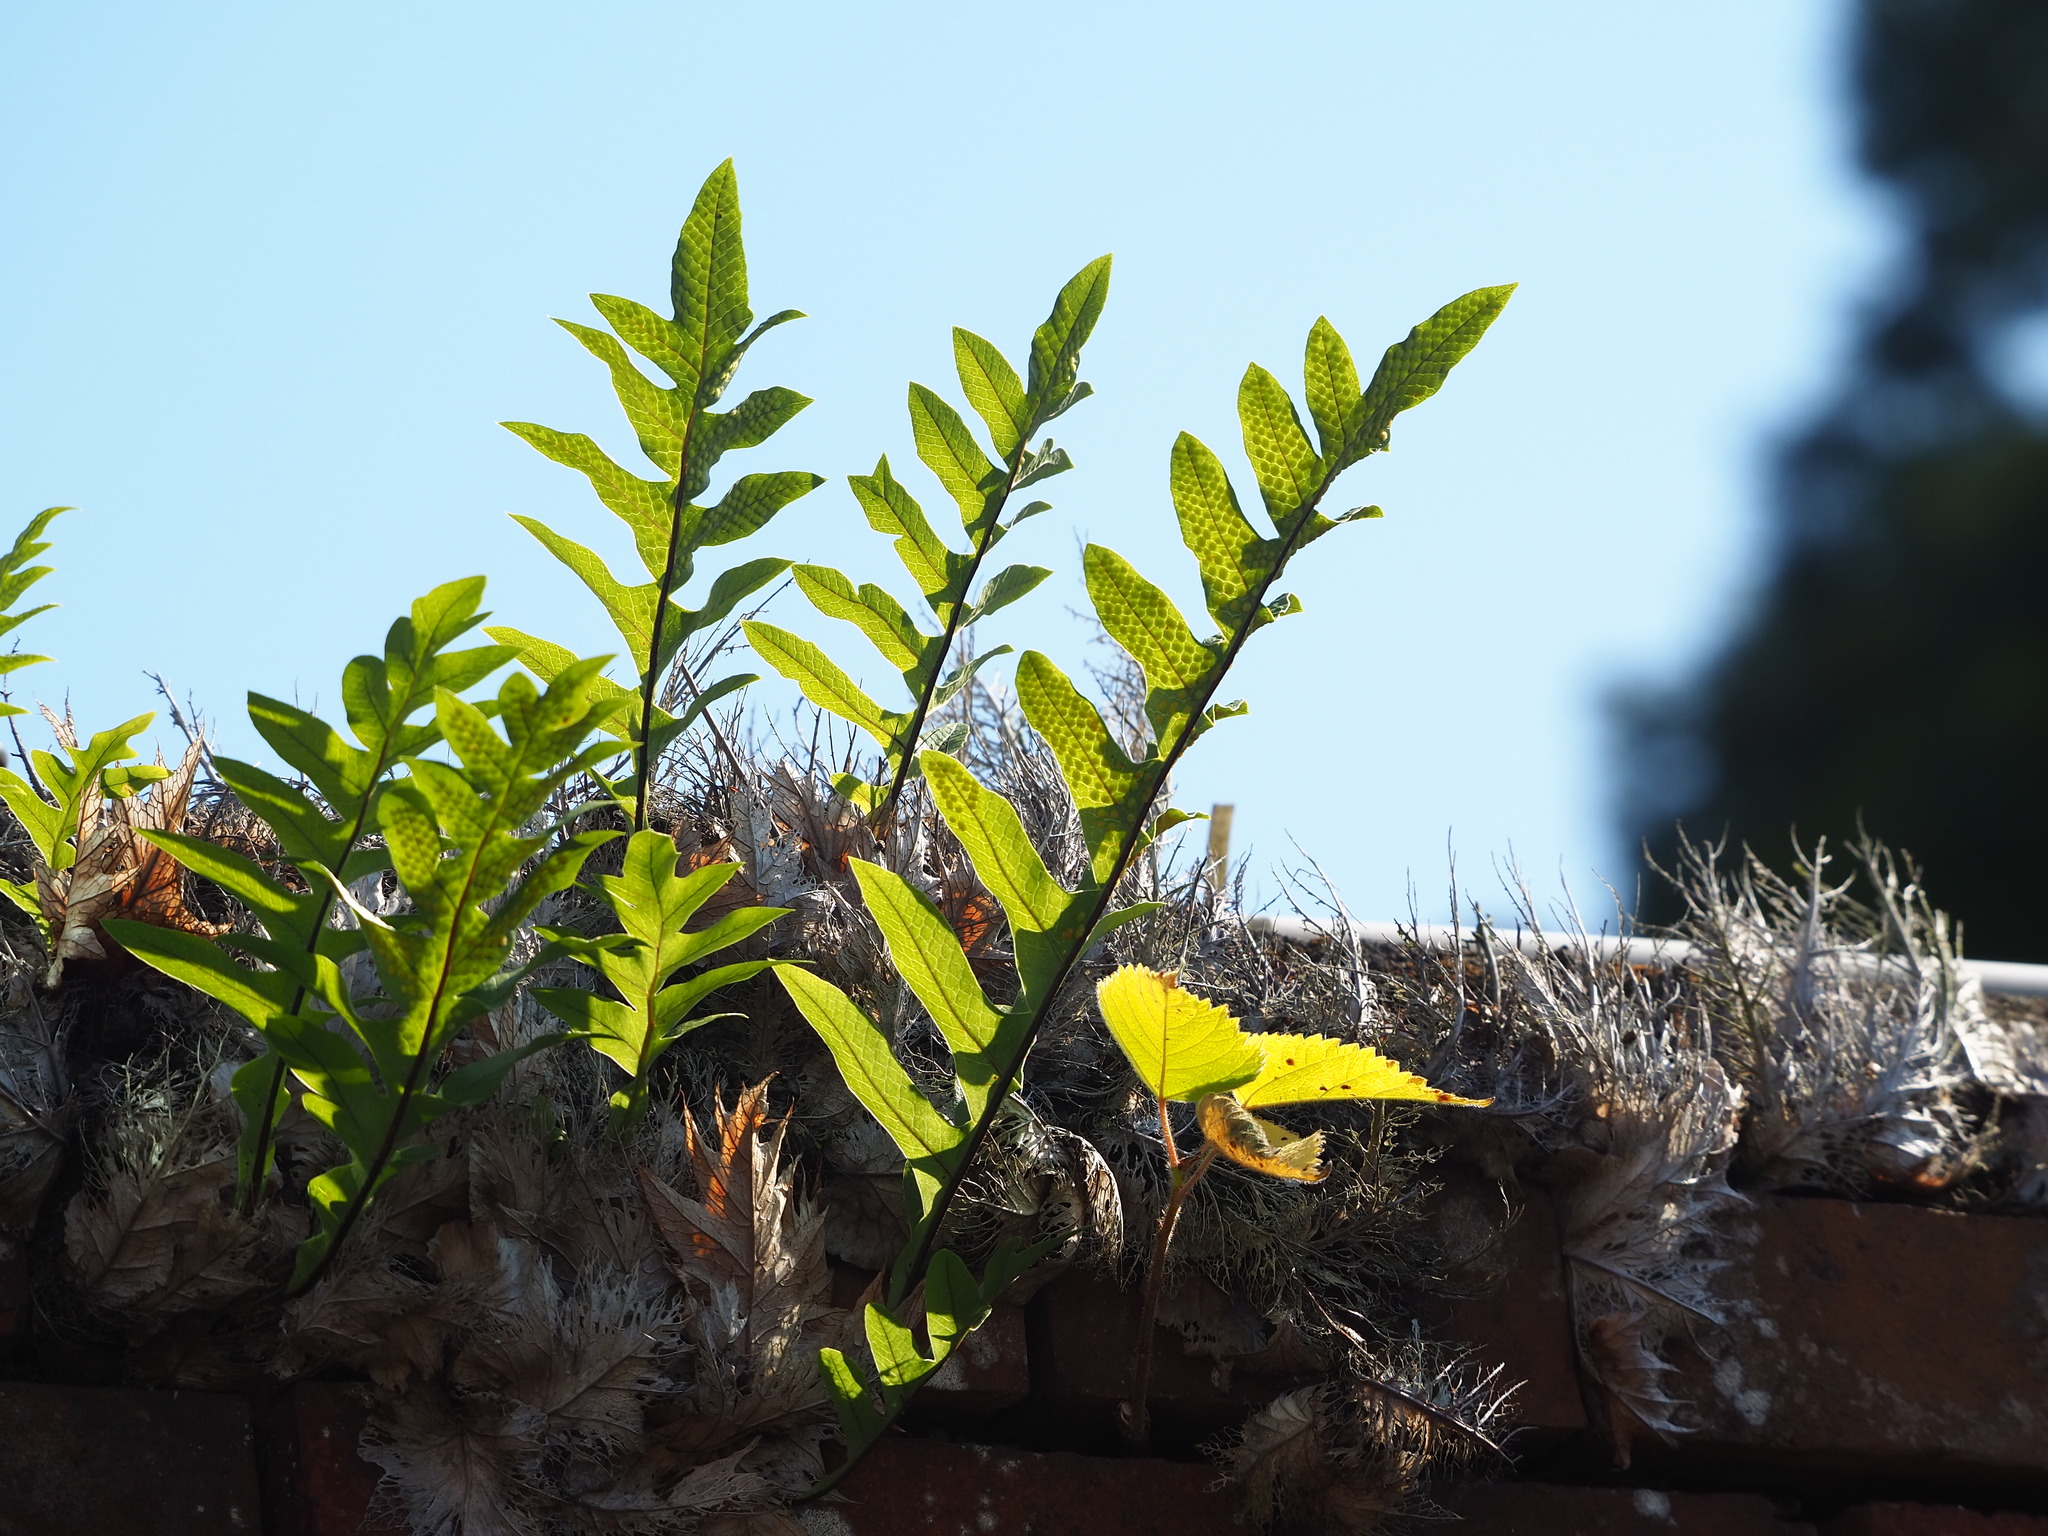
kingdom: Plantae
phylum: Tracheophyta
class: Polypodiopsida
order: Polypodiales
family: Polypodiaceae
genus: Drynaria
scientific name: Drynaria roosii
